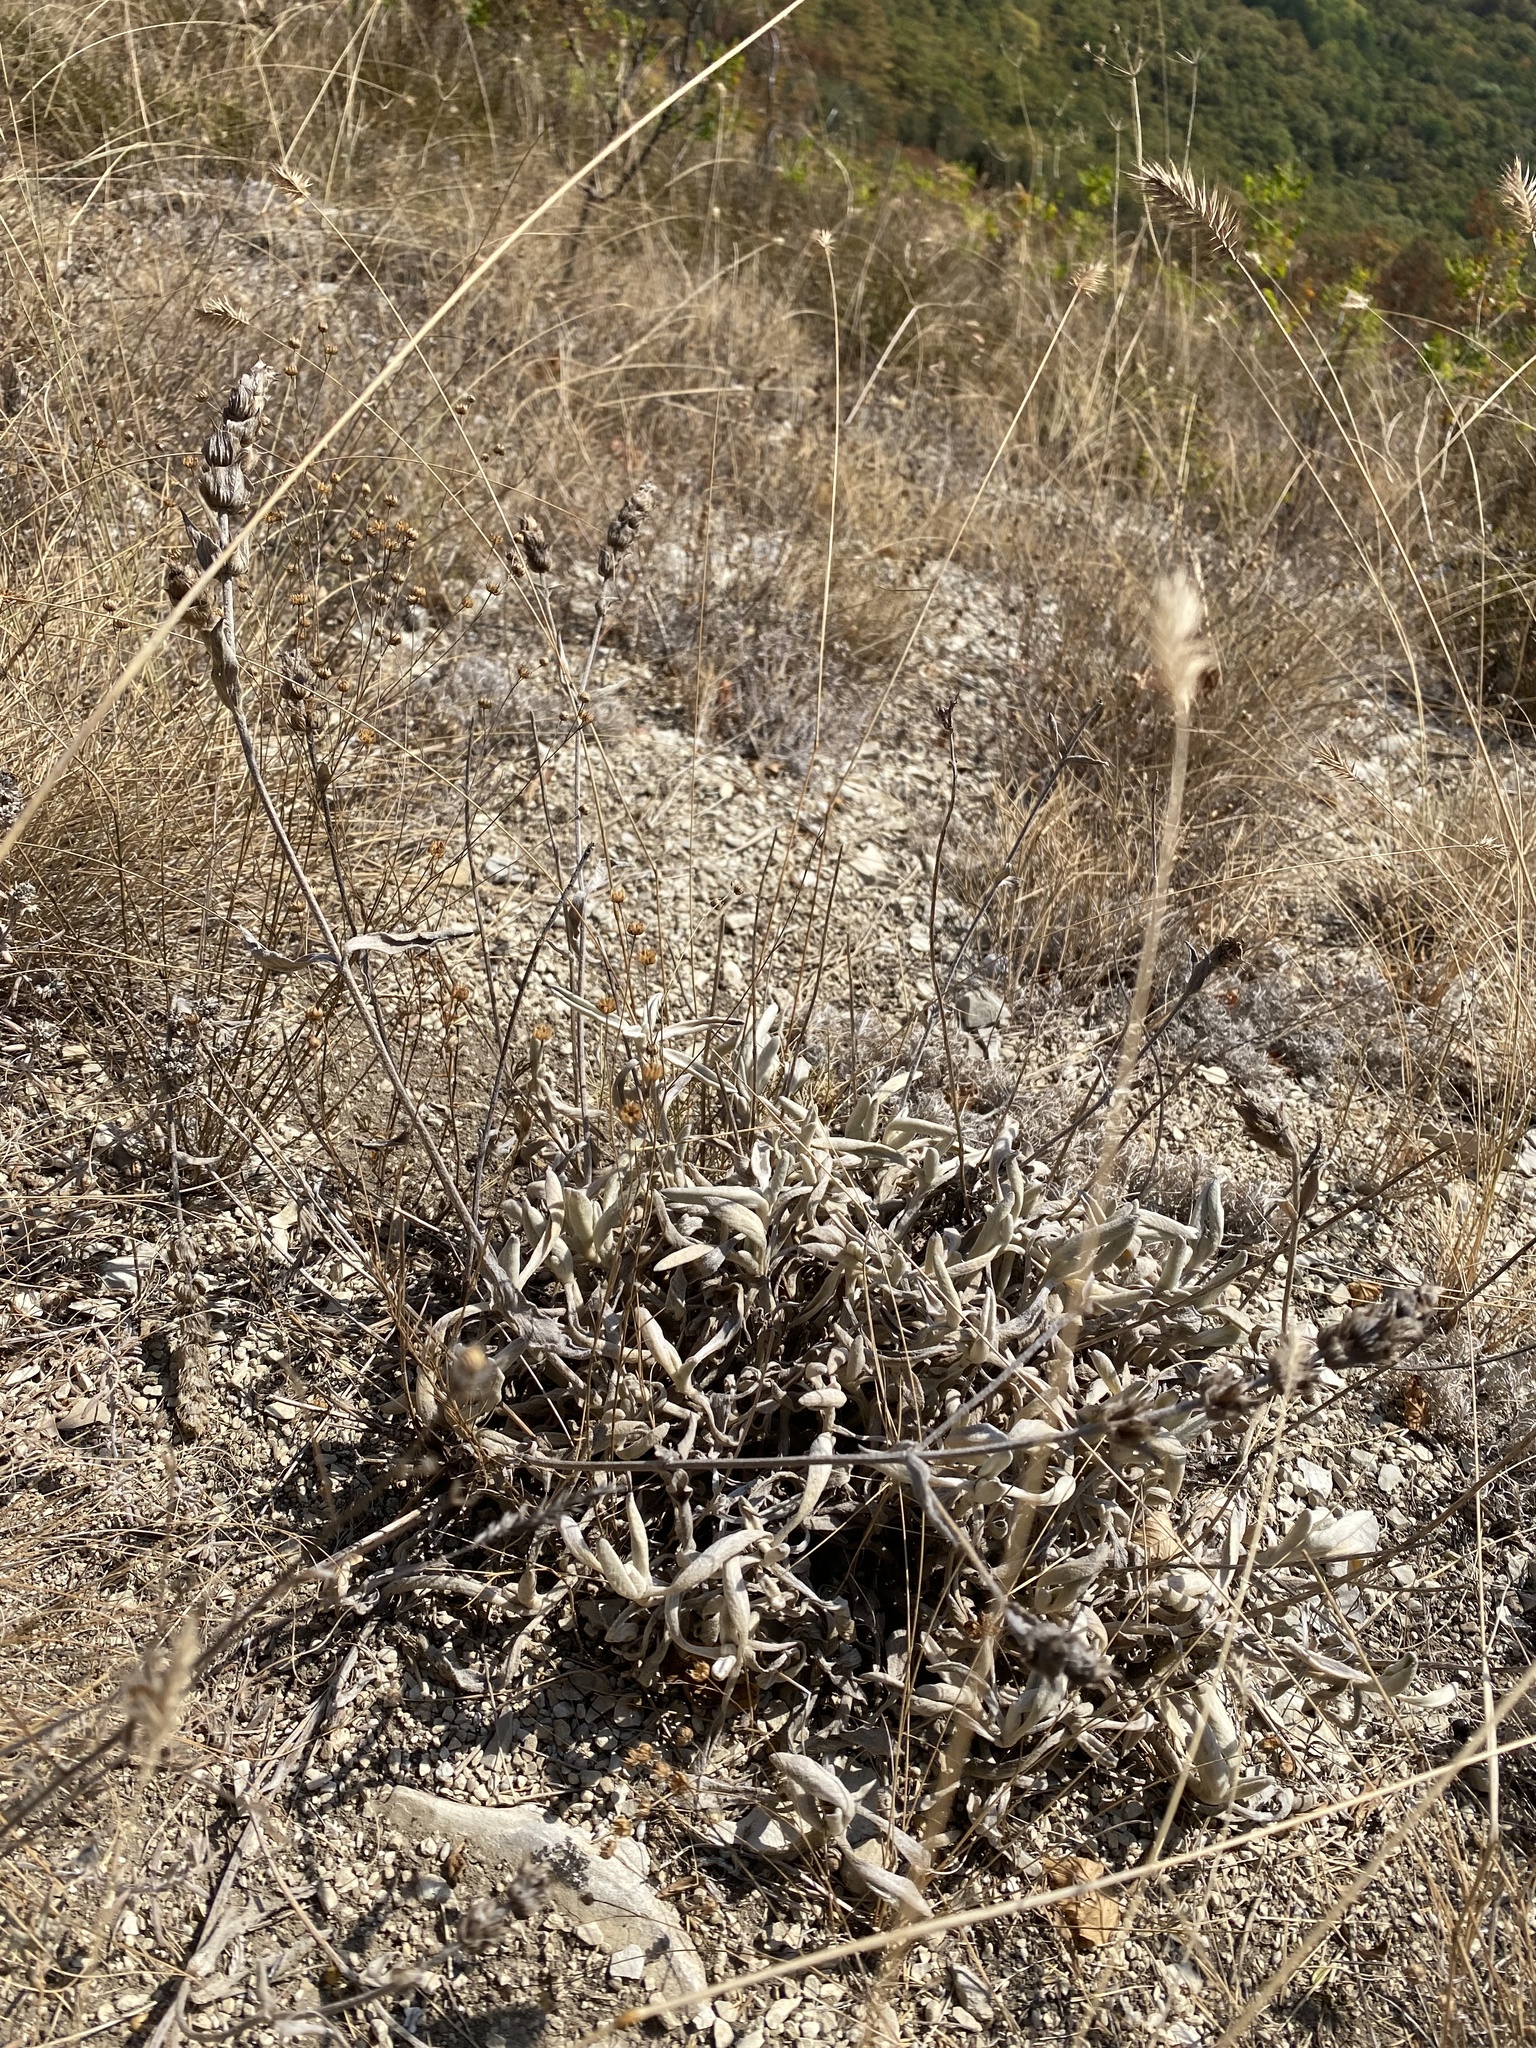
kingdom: Plantae
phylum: Tracheophyta
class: Magnoliopsida
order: Lamiales
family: Lamiaceae
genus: Sideritis
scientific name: Sideritis euxina
